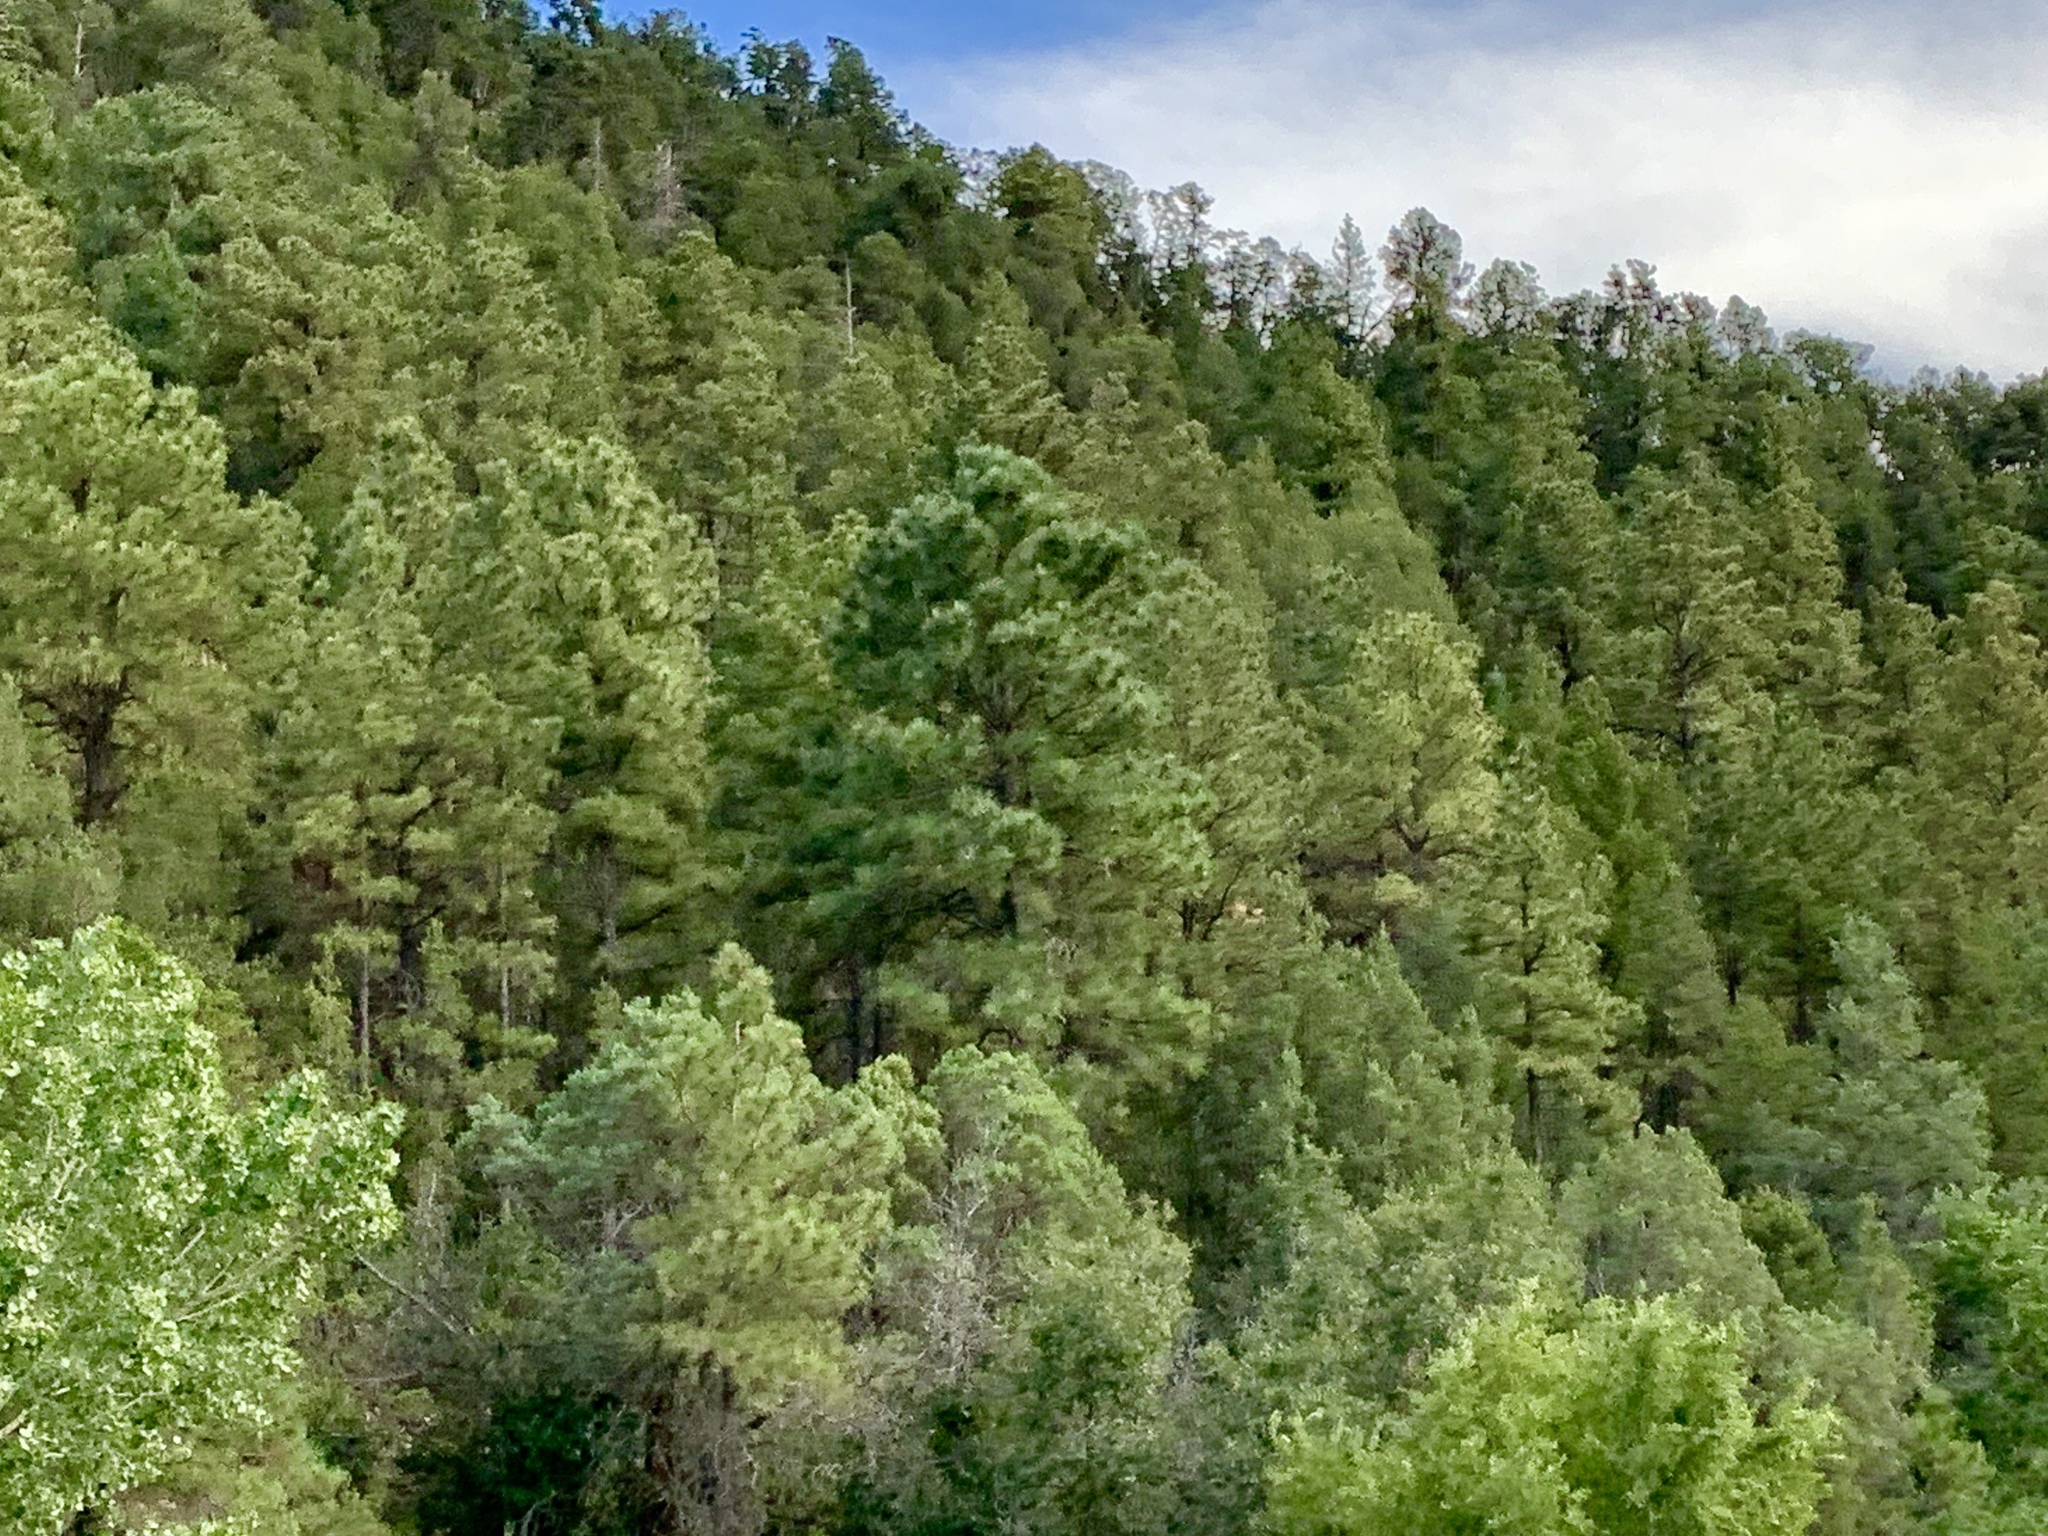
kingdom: Plantae
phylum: Tracheophyta
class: Pinopsida
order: Pinales
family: Pinaceae
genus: Pinus
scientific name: Pinus ponderosa
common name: Western yellow-pine
